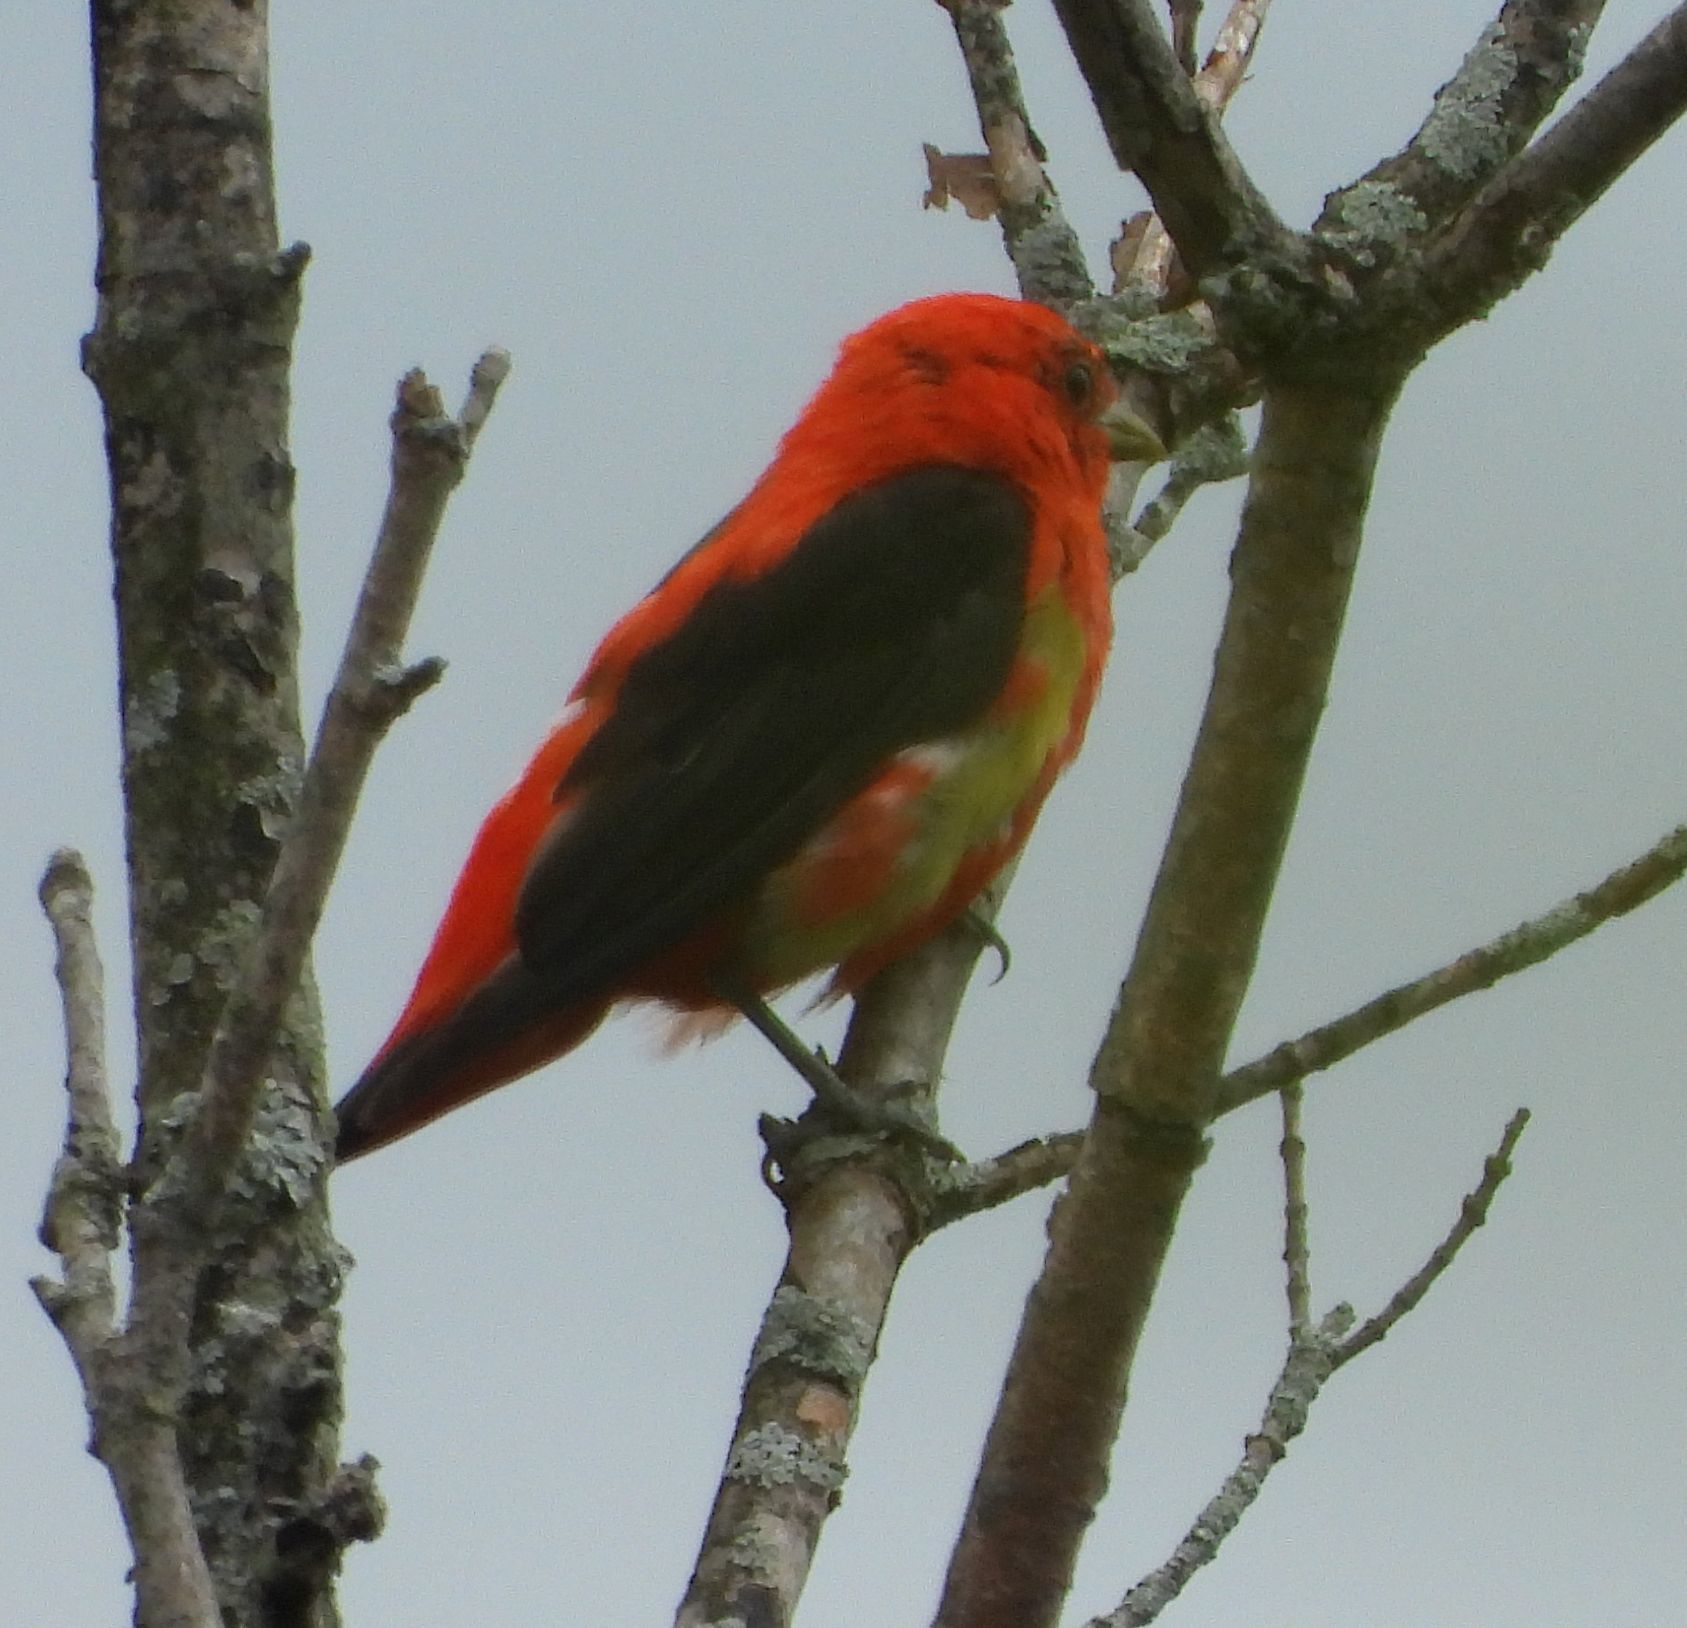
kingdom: Animalia
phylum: Chordata
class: Aves
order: Passeriformes
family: Cardinalidae
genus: Piranga
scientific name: Piranga olivacea
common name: Scarlet tanager
